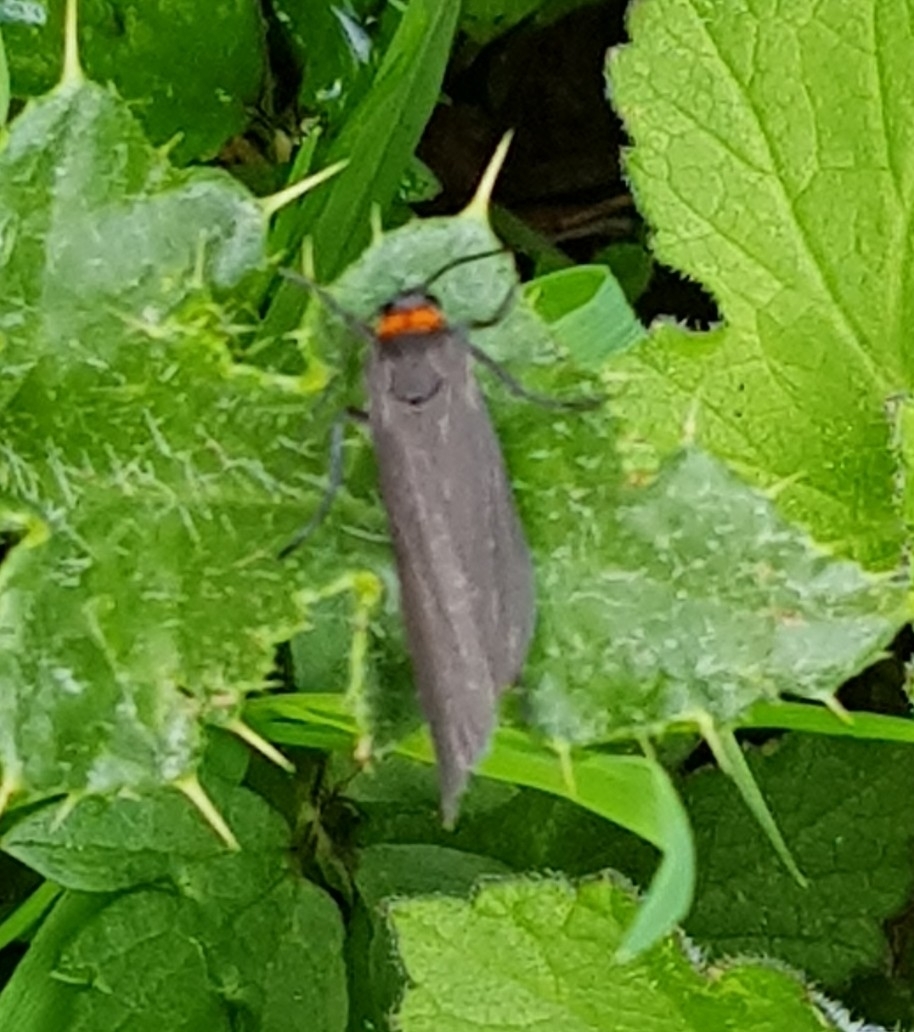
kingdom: Animalia
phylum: Arthropoda
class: Insecta
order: Lepidoptera
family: Erebidae
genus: Atolmis
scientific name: Atolmis rubricollis
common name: Red-necked footman
